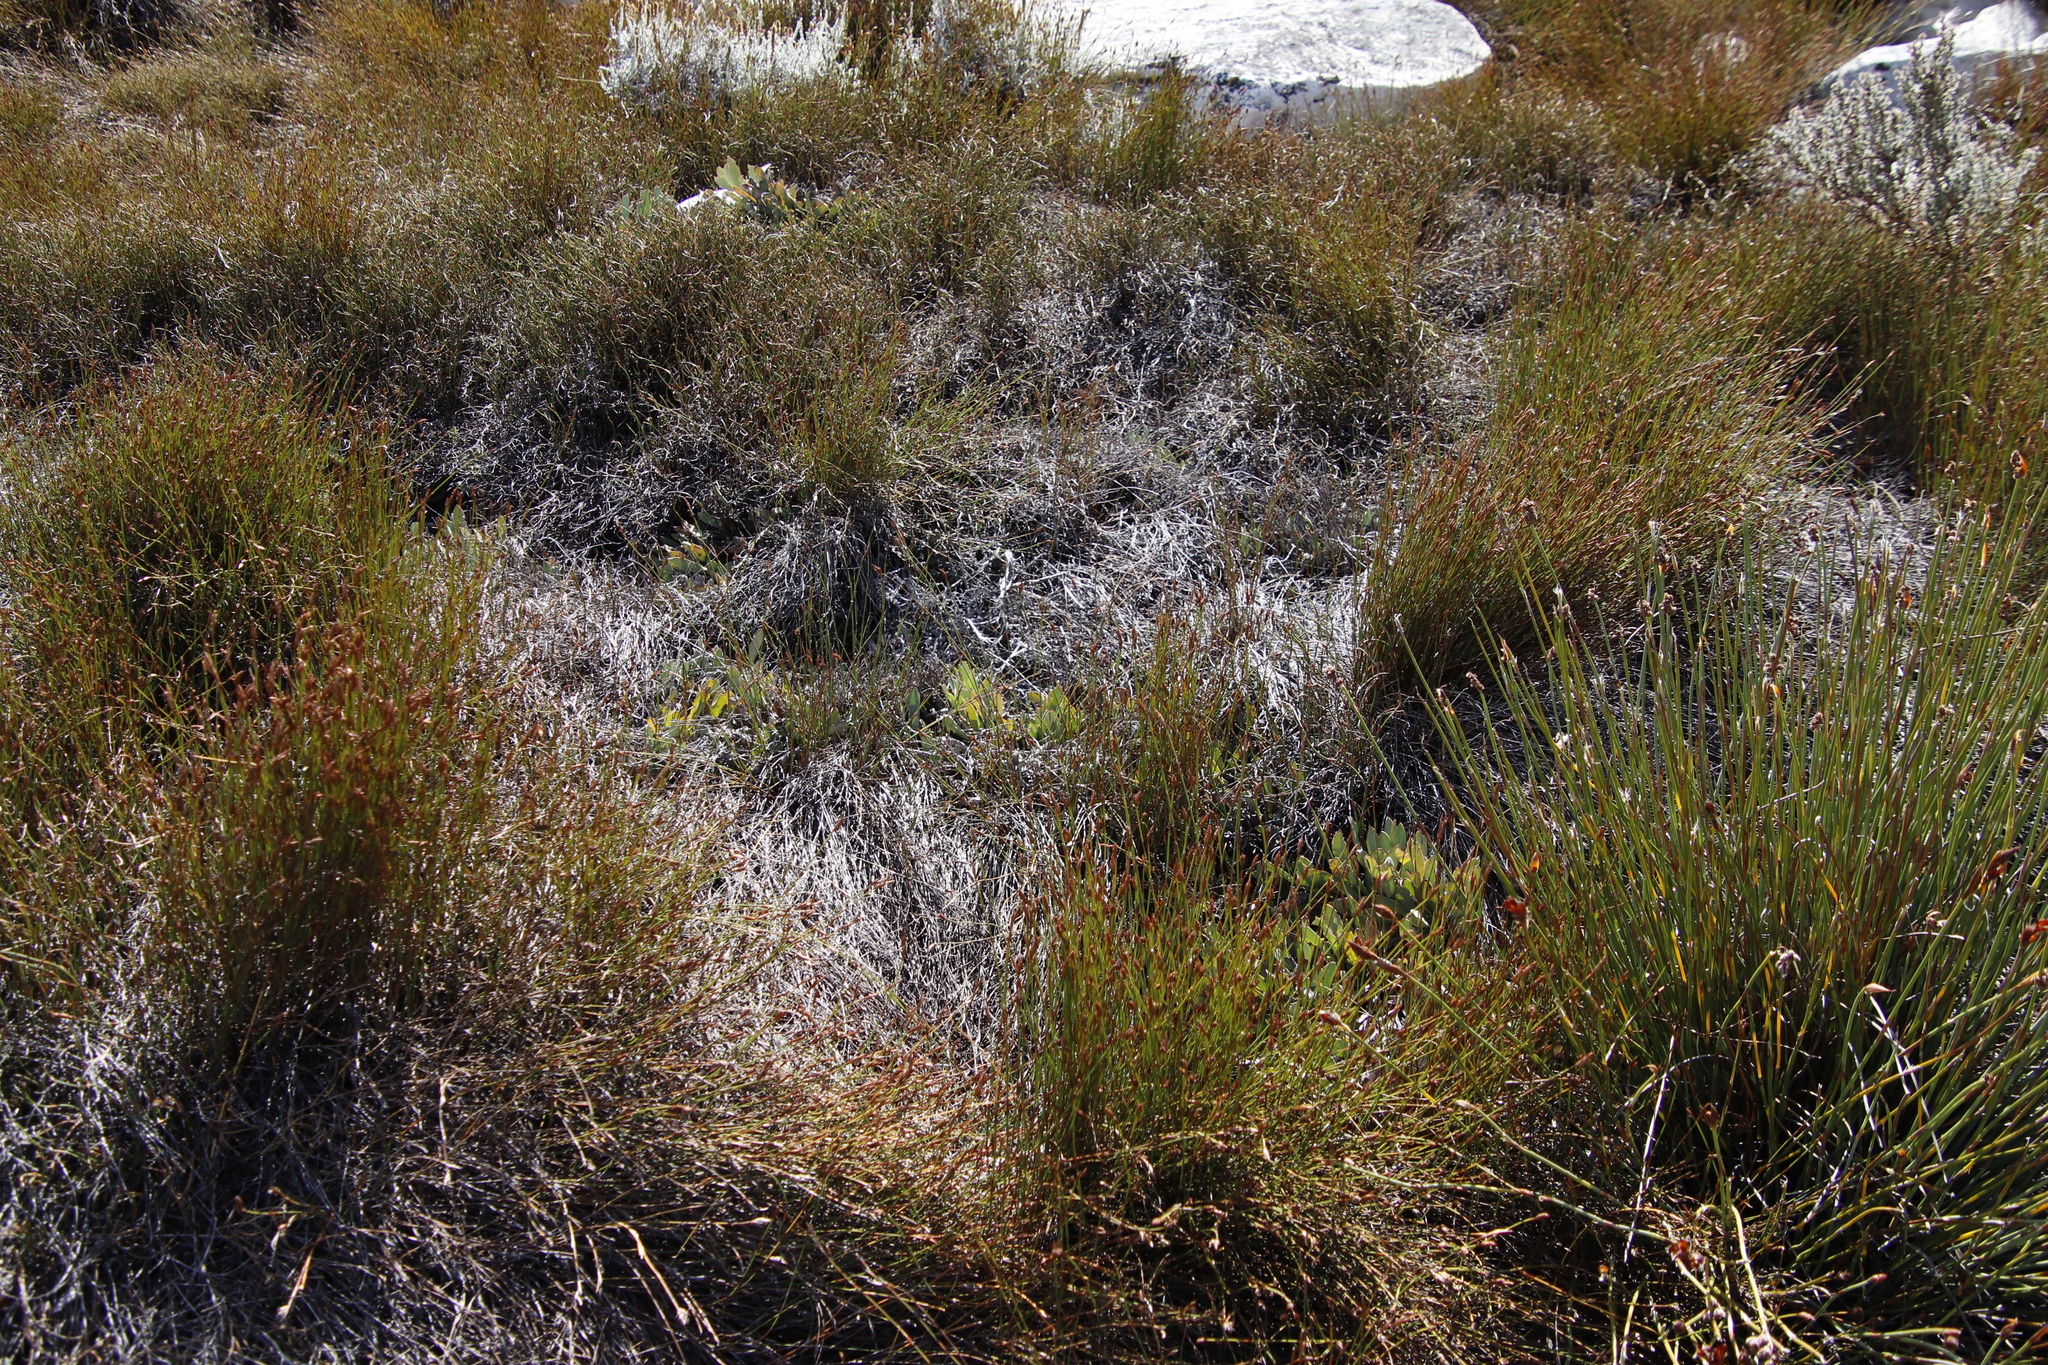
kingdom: Plantae
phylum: Tracheophyta
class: Magnoliopsida
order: Proteales
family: Proteaceae
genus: Protea
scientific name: Protea laevis
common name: Smooth-leaf sugarbush
